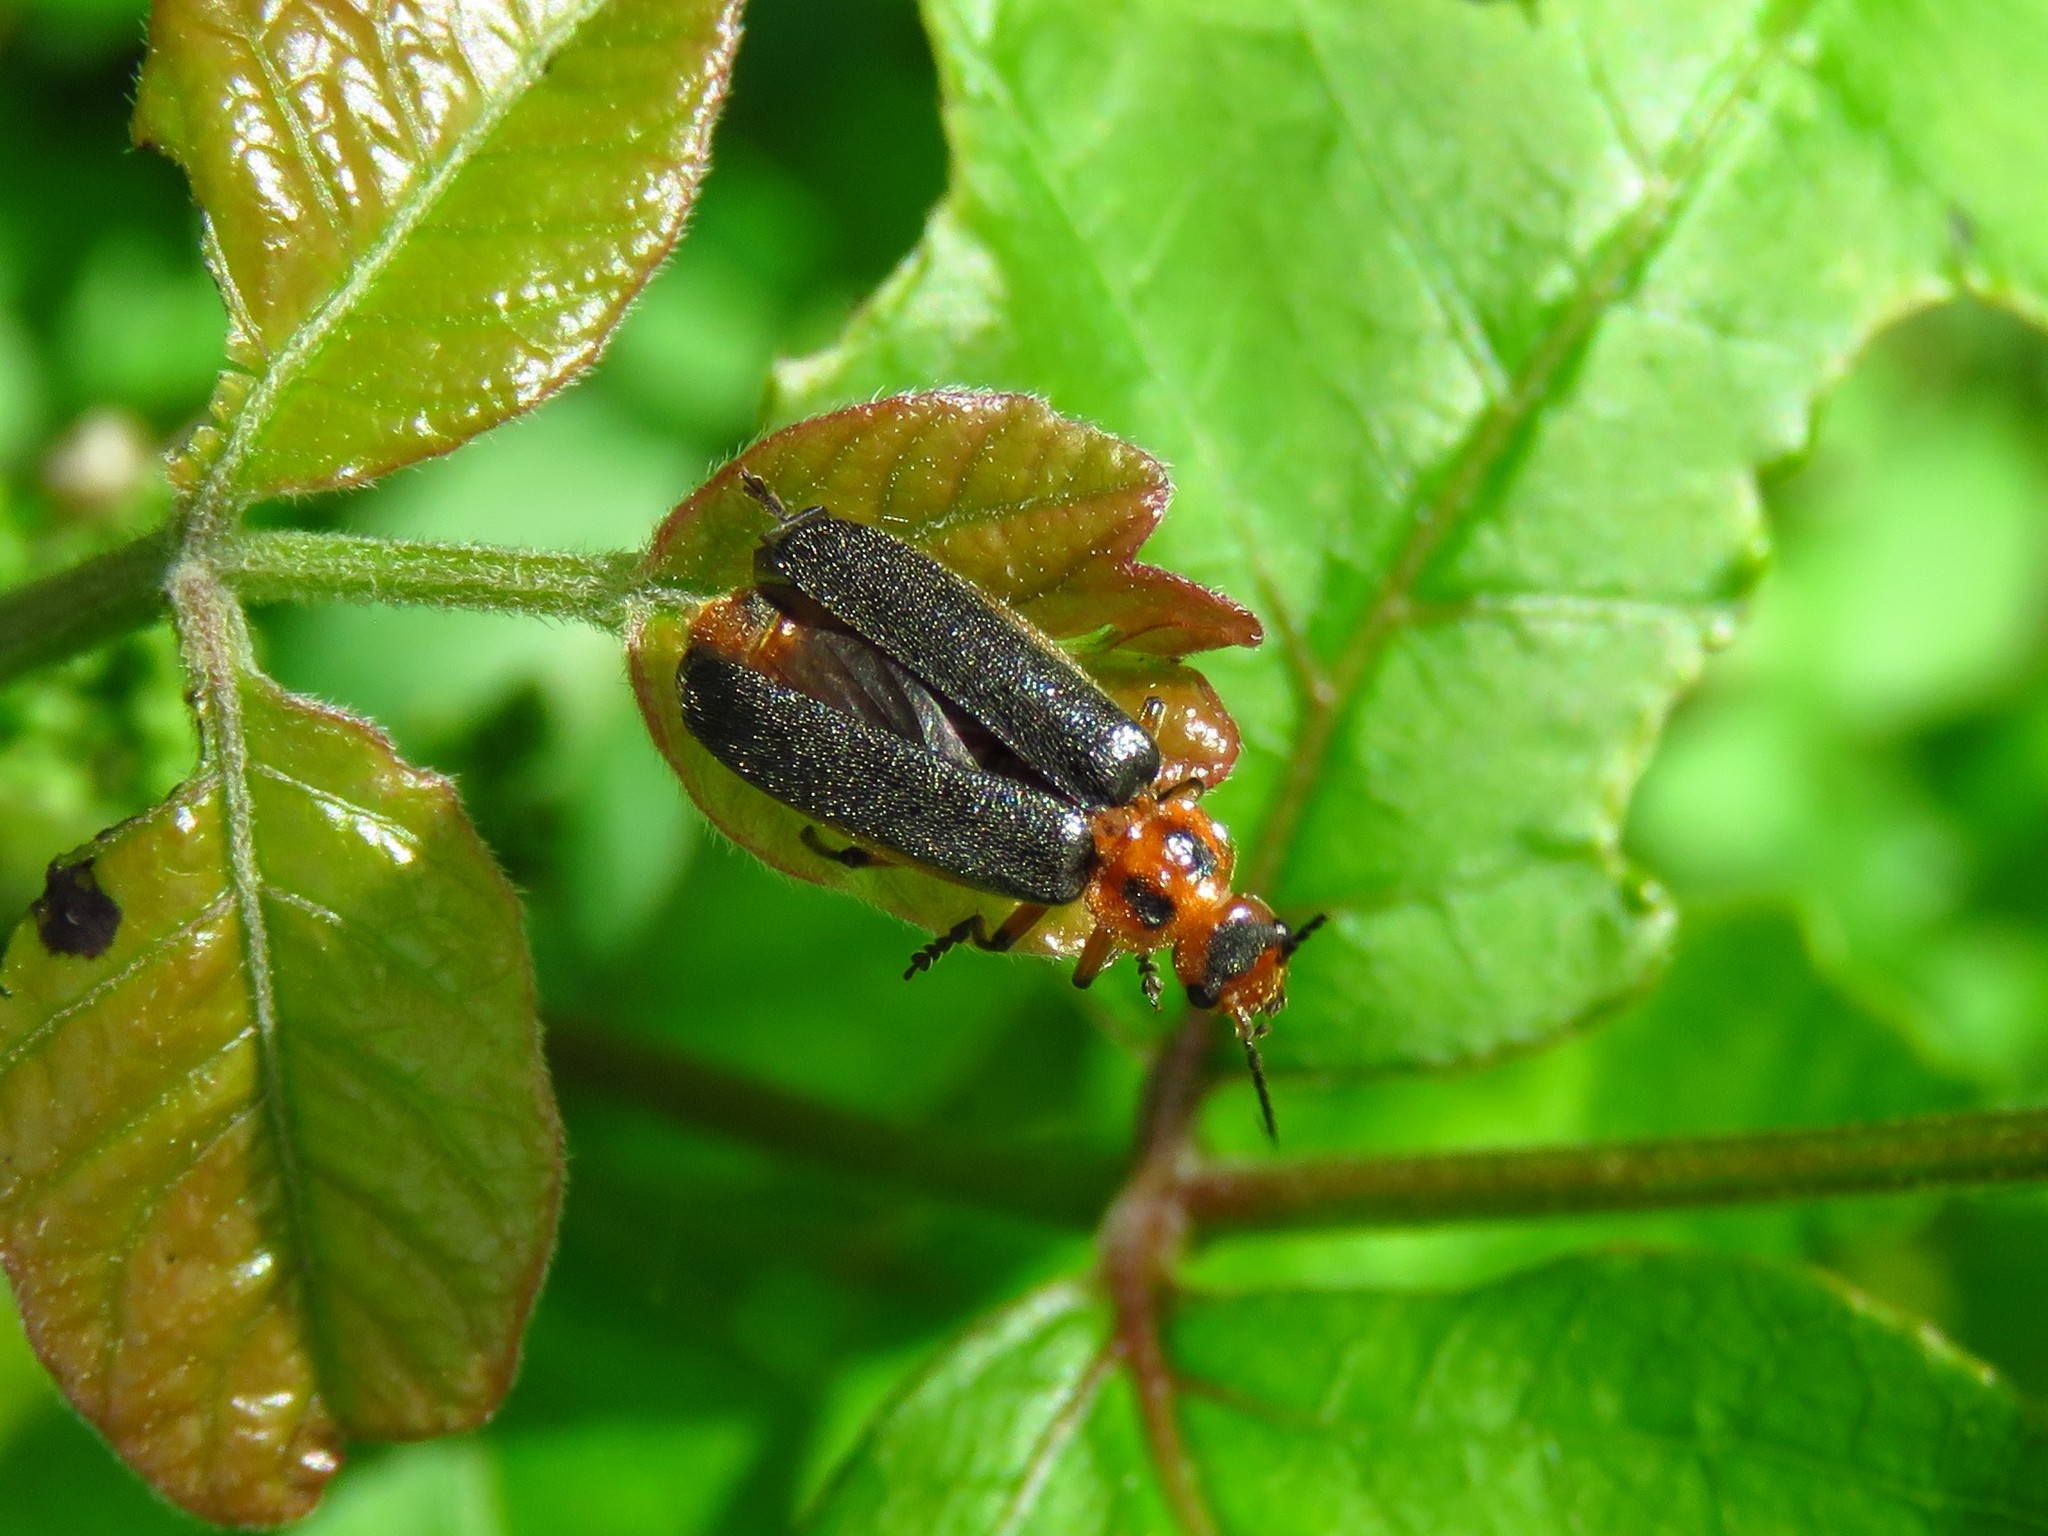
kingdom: Animalia
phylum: Arthropoda
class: Insecta
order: Coleoptera
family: Cantharidae
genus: Atalantycha
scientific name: Atalantycha bilineata
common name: Two-lined leatherwing
